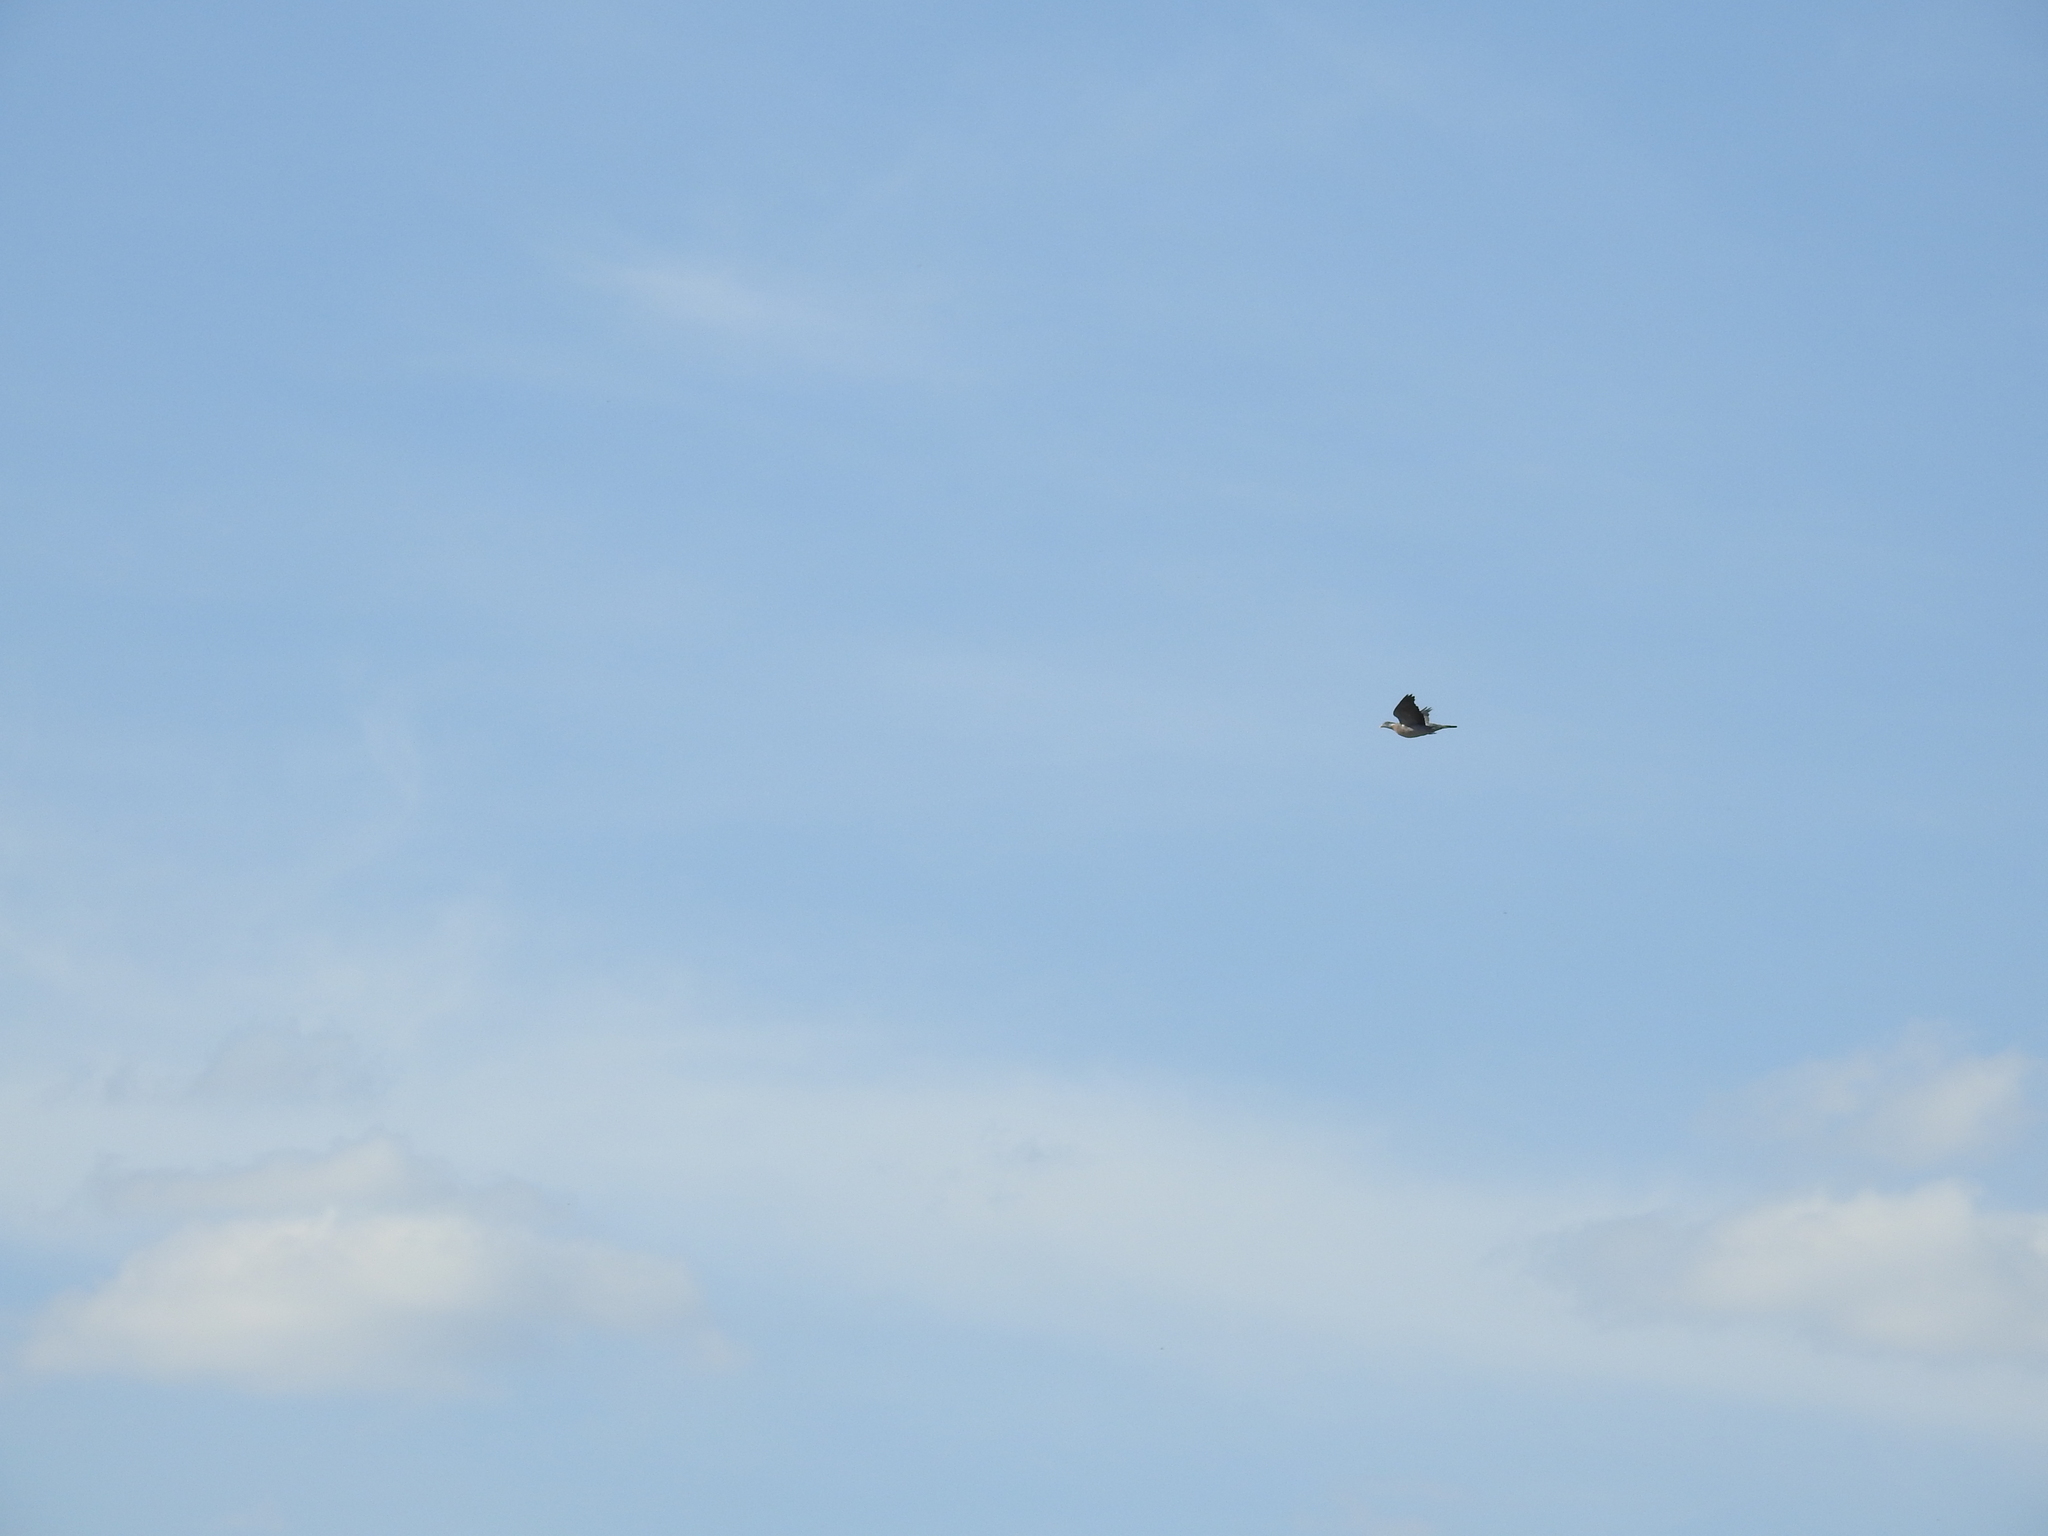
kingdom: Animalia
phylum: Chordata
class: Aves
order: Columbiformes
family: Columbidae
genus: Columba
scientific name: Columba palumbus
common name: Common wood pigeon
